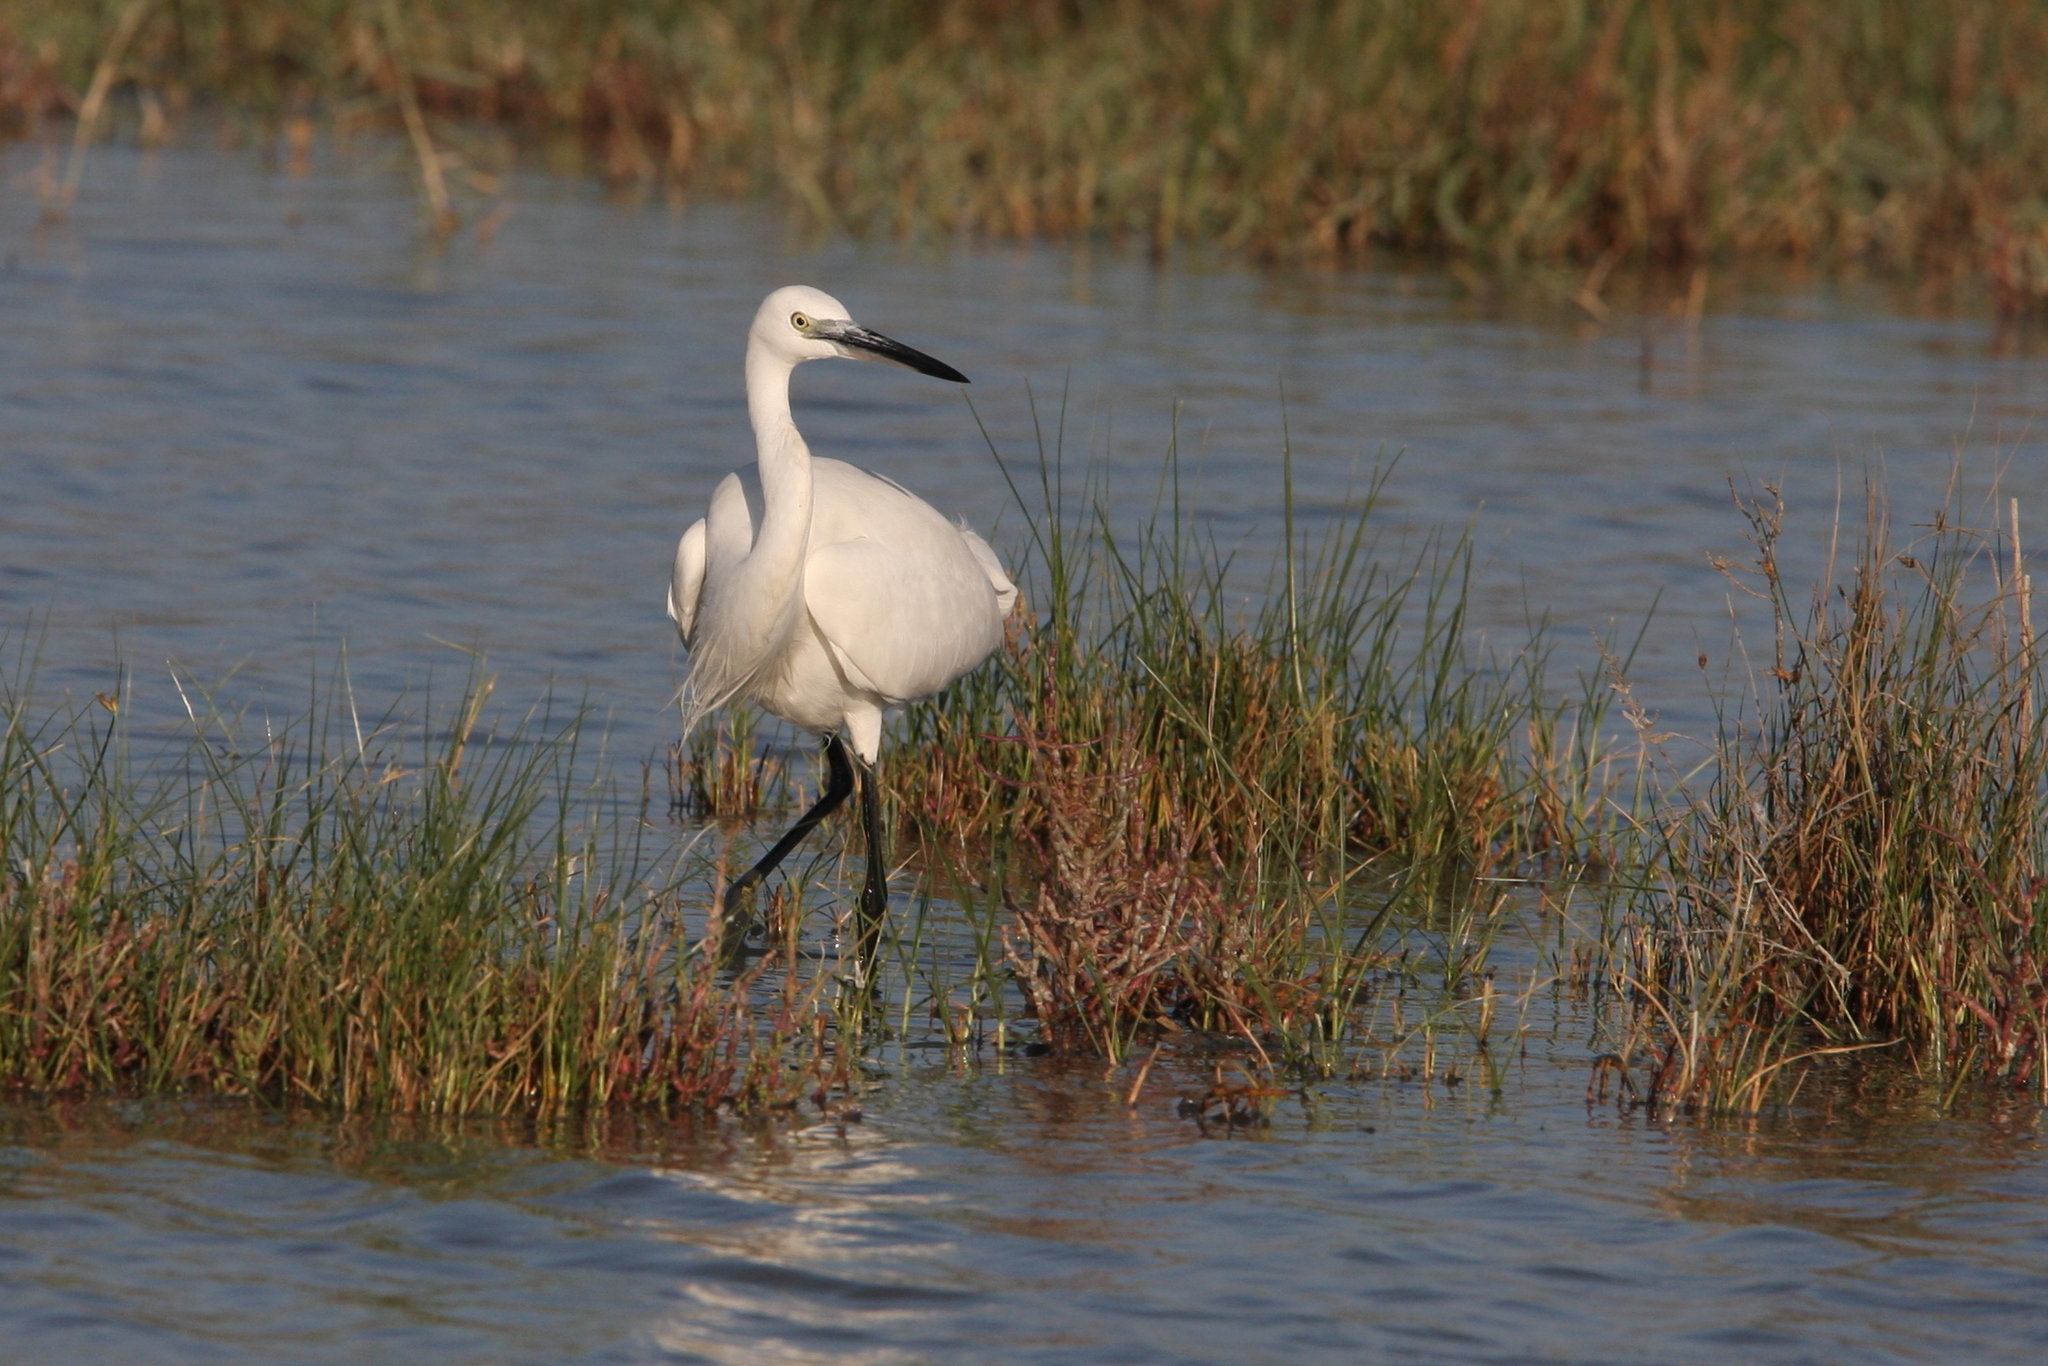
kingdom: Animalia
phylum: Chordata
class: Aves
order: Pelecaniformes
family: Ardeidae
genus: Egretta
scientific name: Egretta garzetta
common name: Little egret
